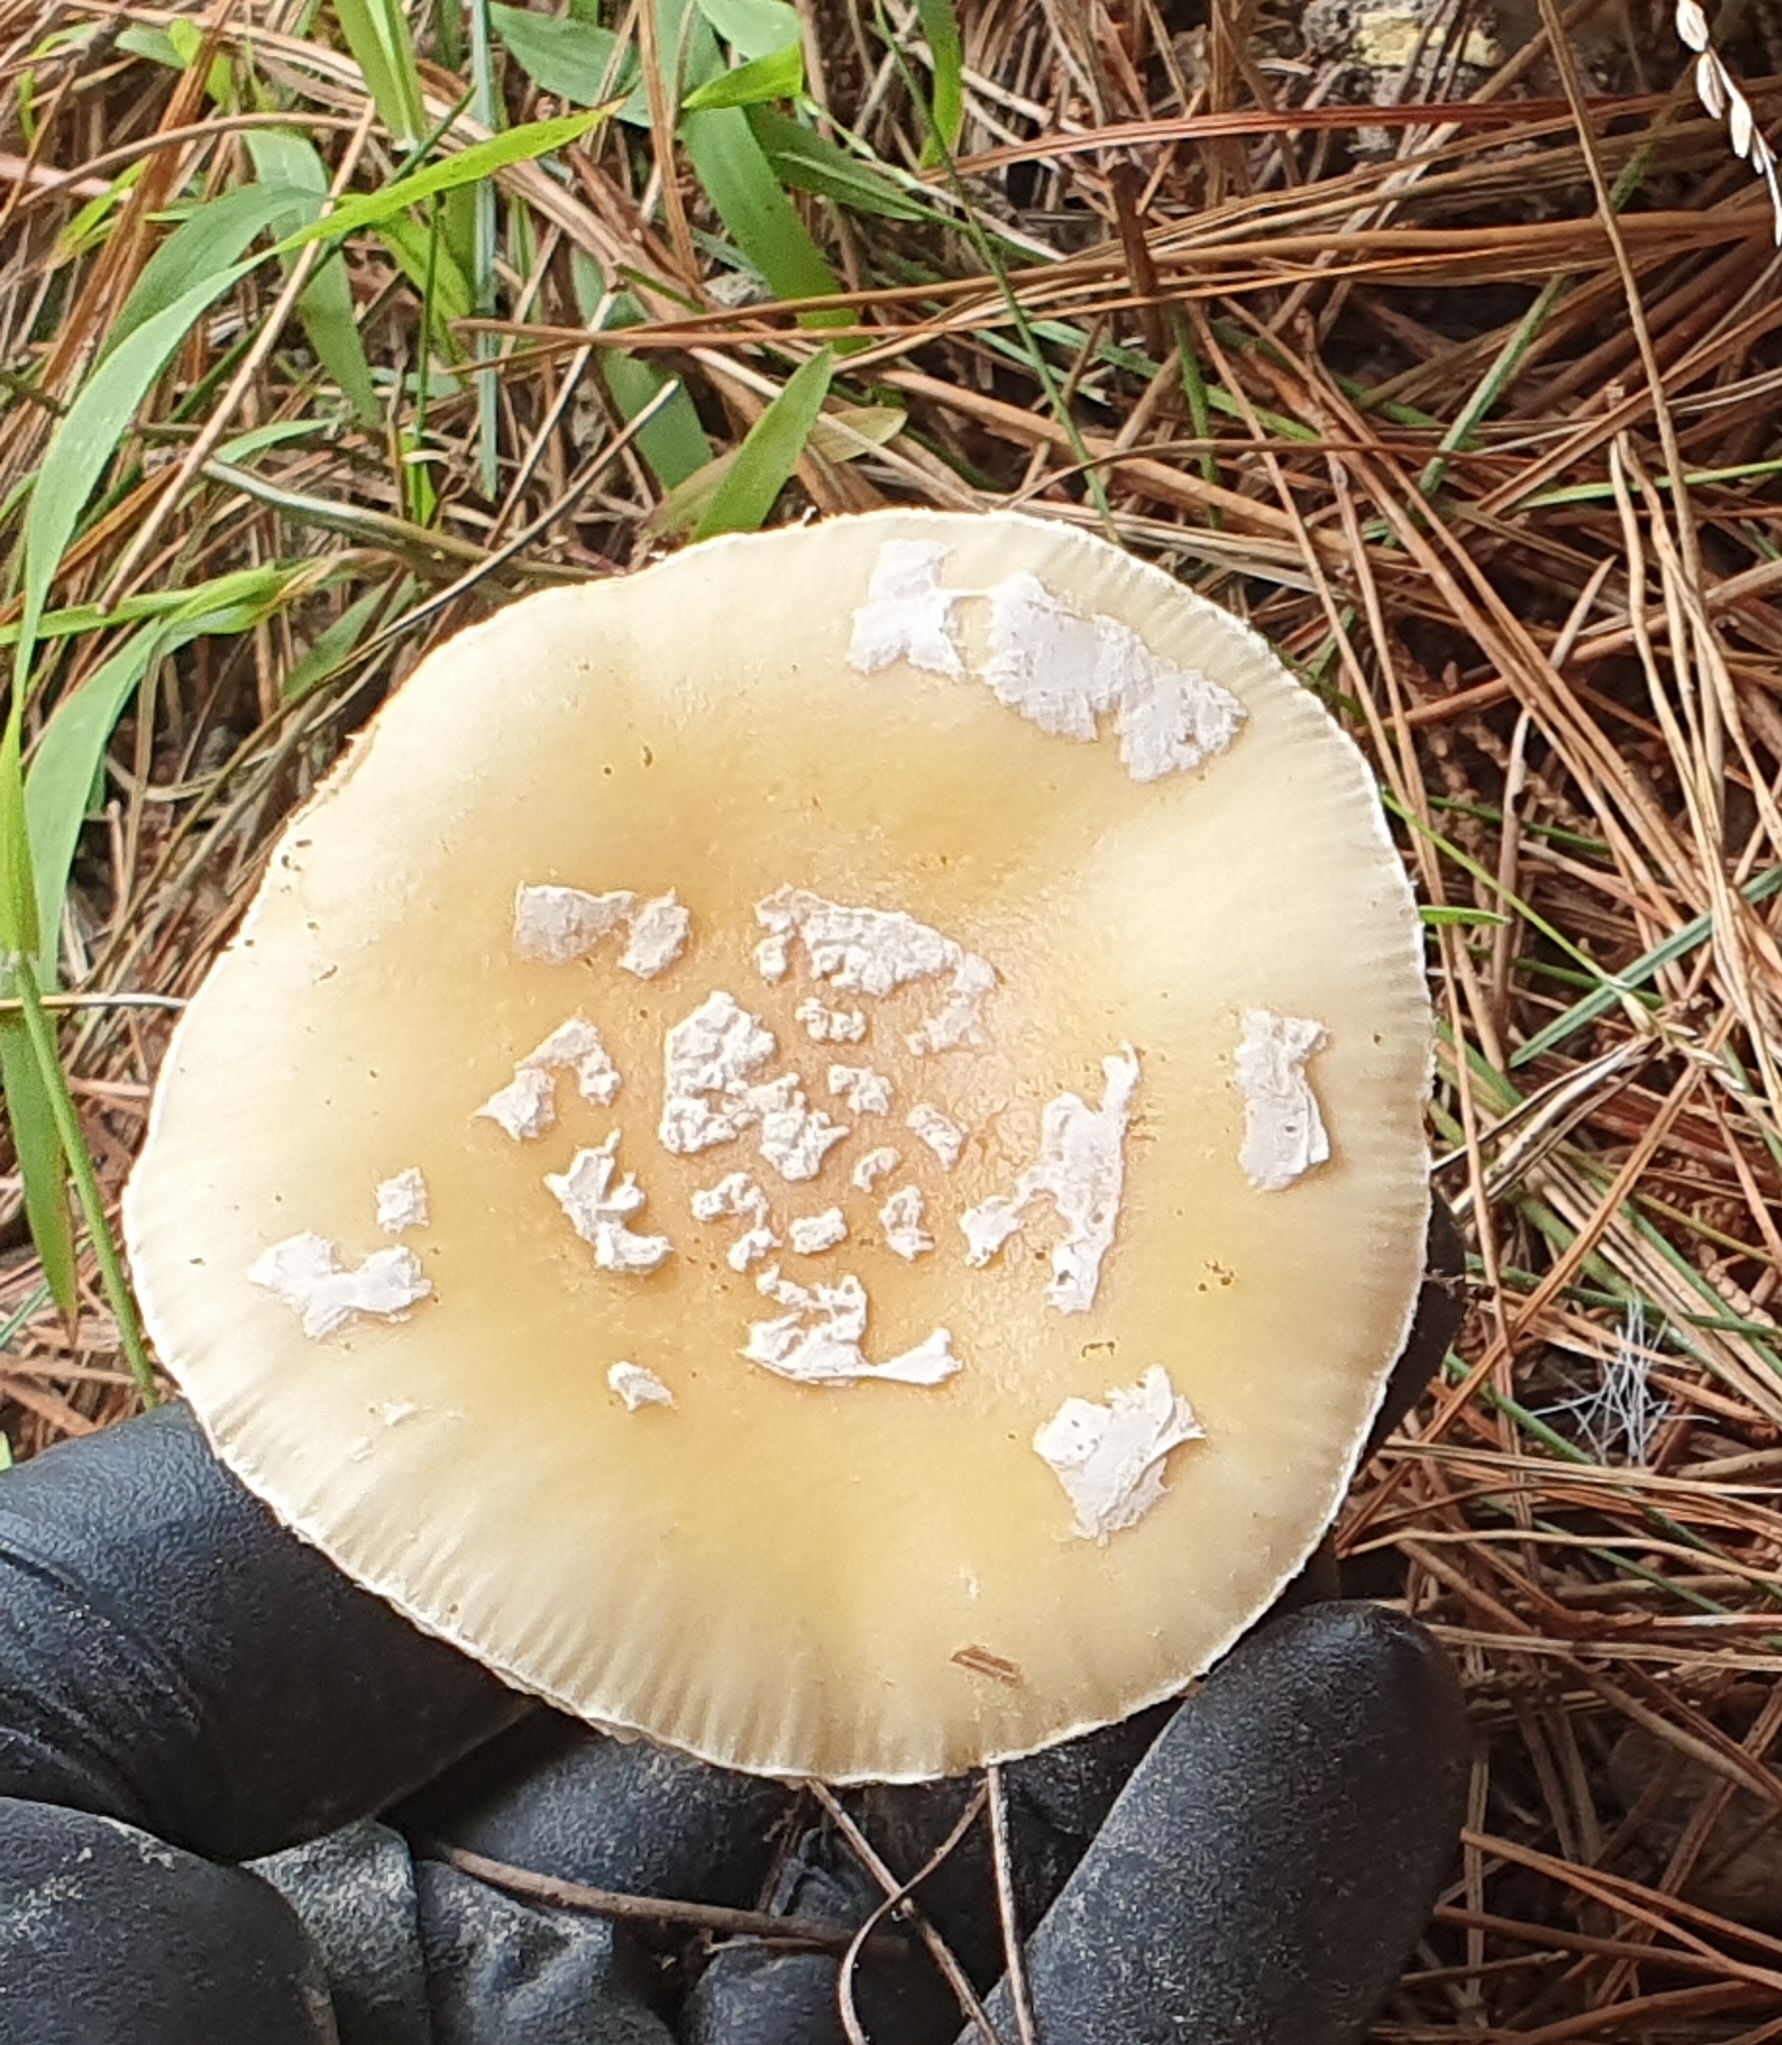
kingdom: Fungi
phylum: Basidiomycota
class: Agaricomycetes
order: Agaricales
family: Amanitaceae
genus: Amanita
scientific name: Amanita gemmata
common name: Jewelled amanita
